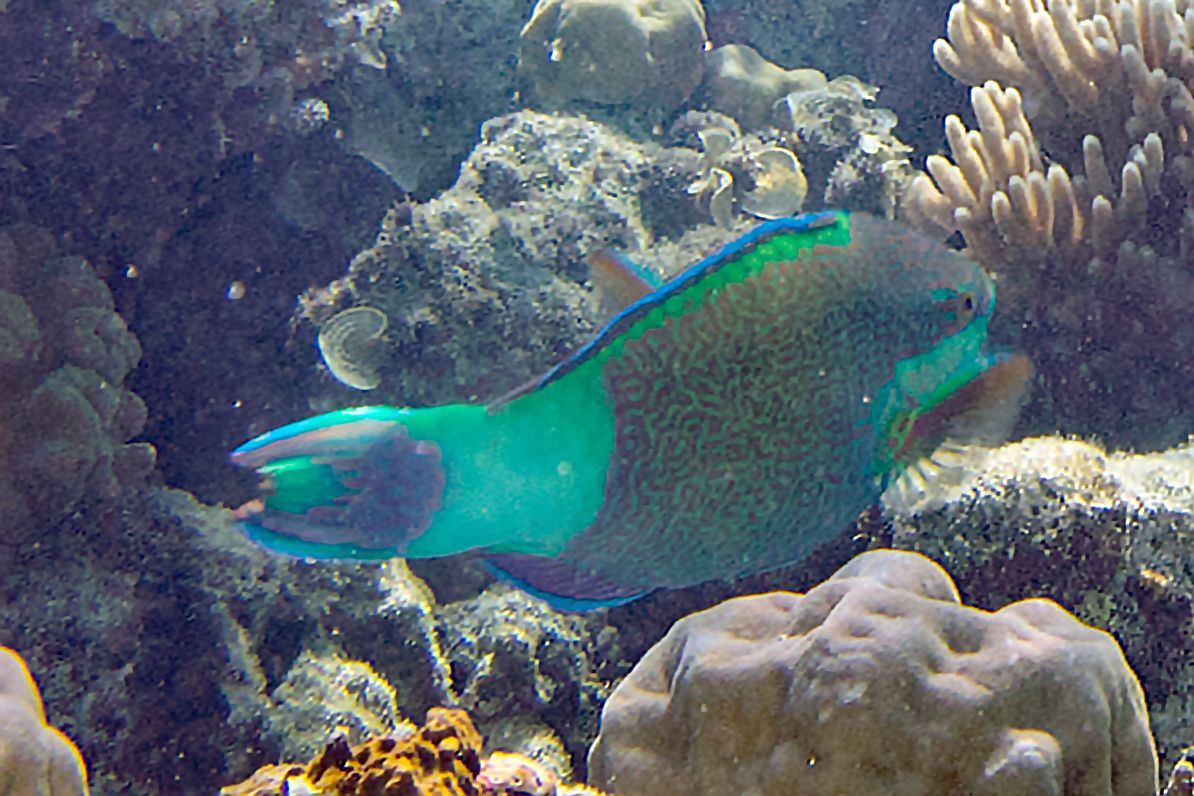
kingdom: Animalia
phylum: Chordata
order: Perciformes
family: Scaridae
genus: Scarus
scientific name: Scarus frenatus
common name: Bridled parrotfish
